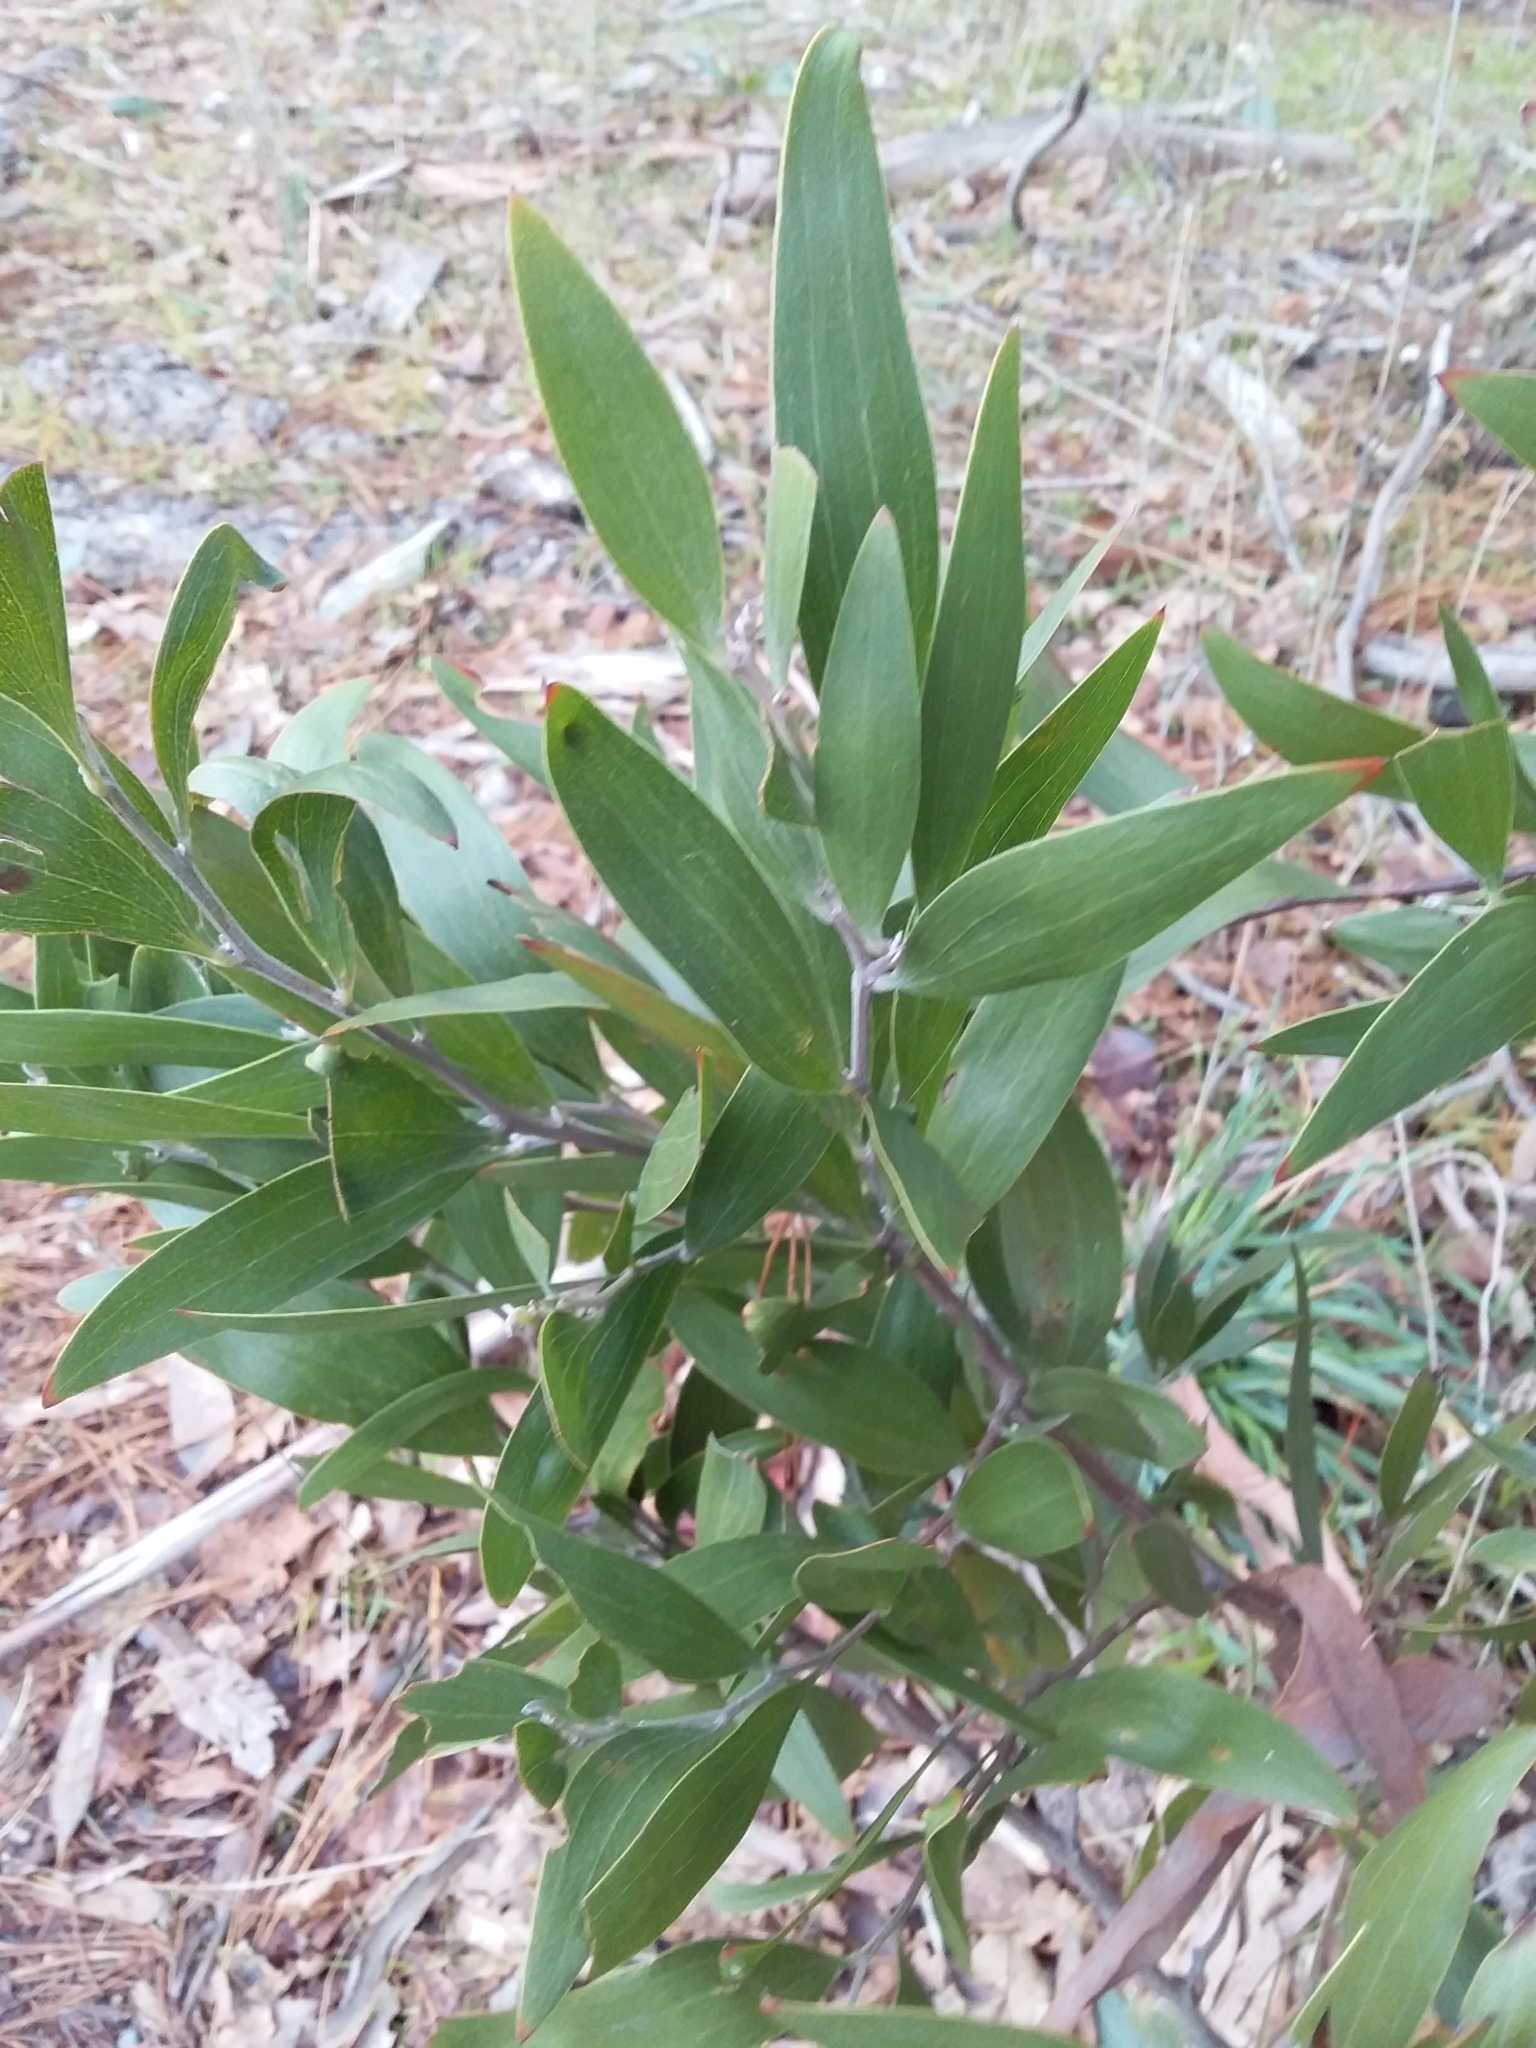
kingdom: Plantae
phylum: Tracheophyta
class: Magnoliopsida
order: Fabales
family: Fabaceae
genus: Acacia
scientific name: Acacia melanoxylon
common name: Blackwood
